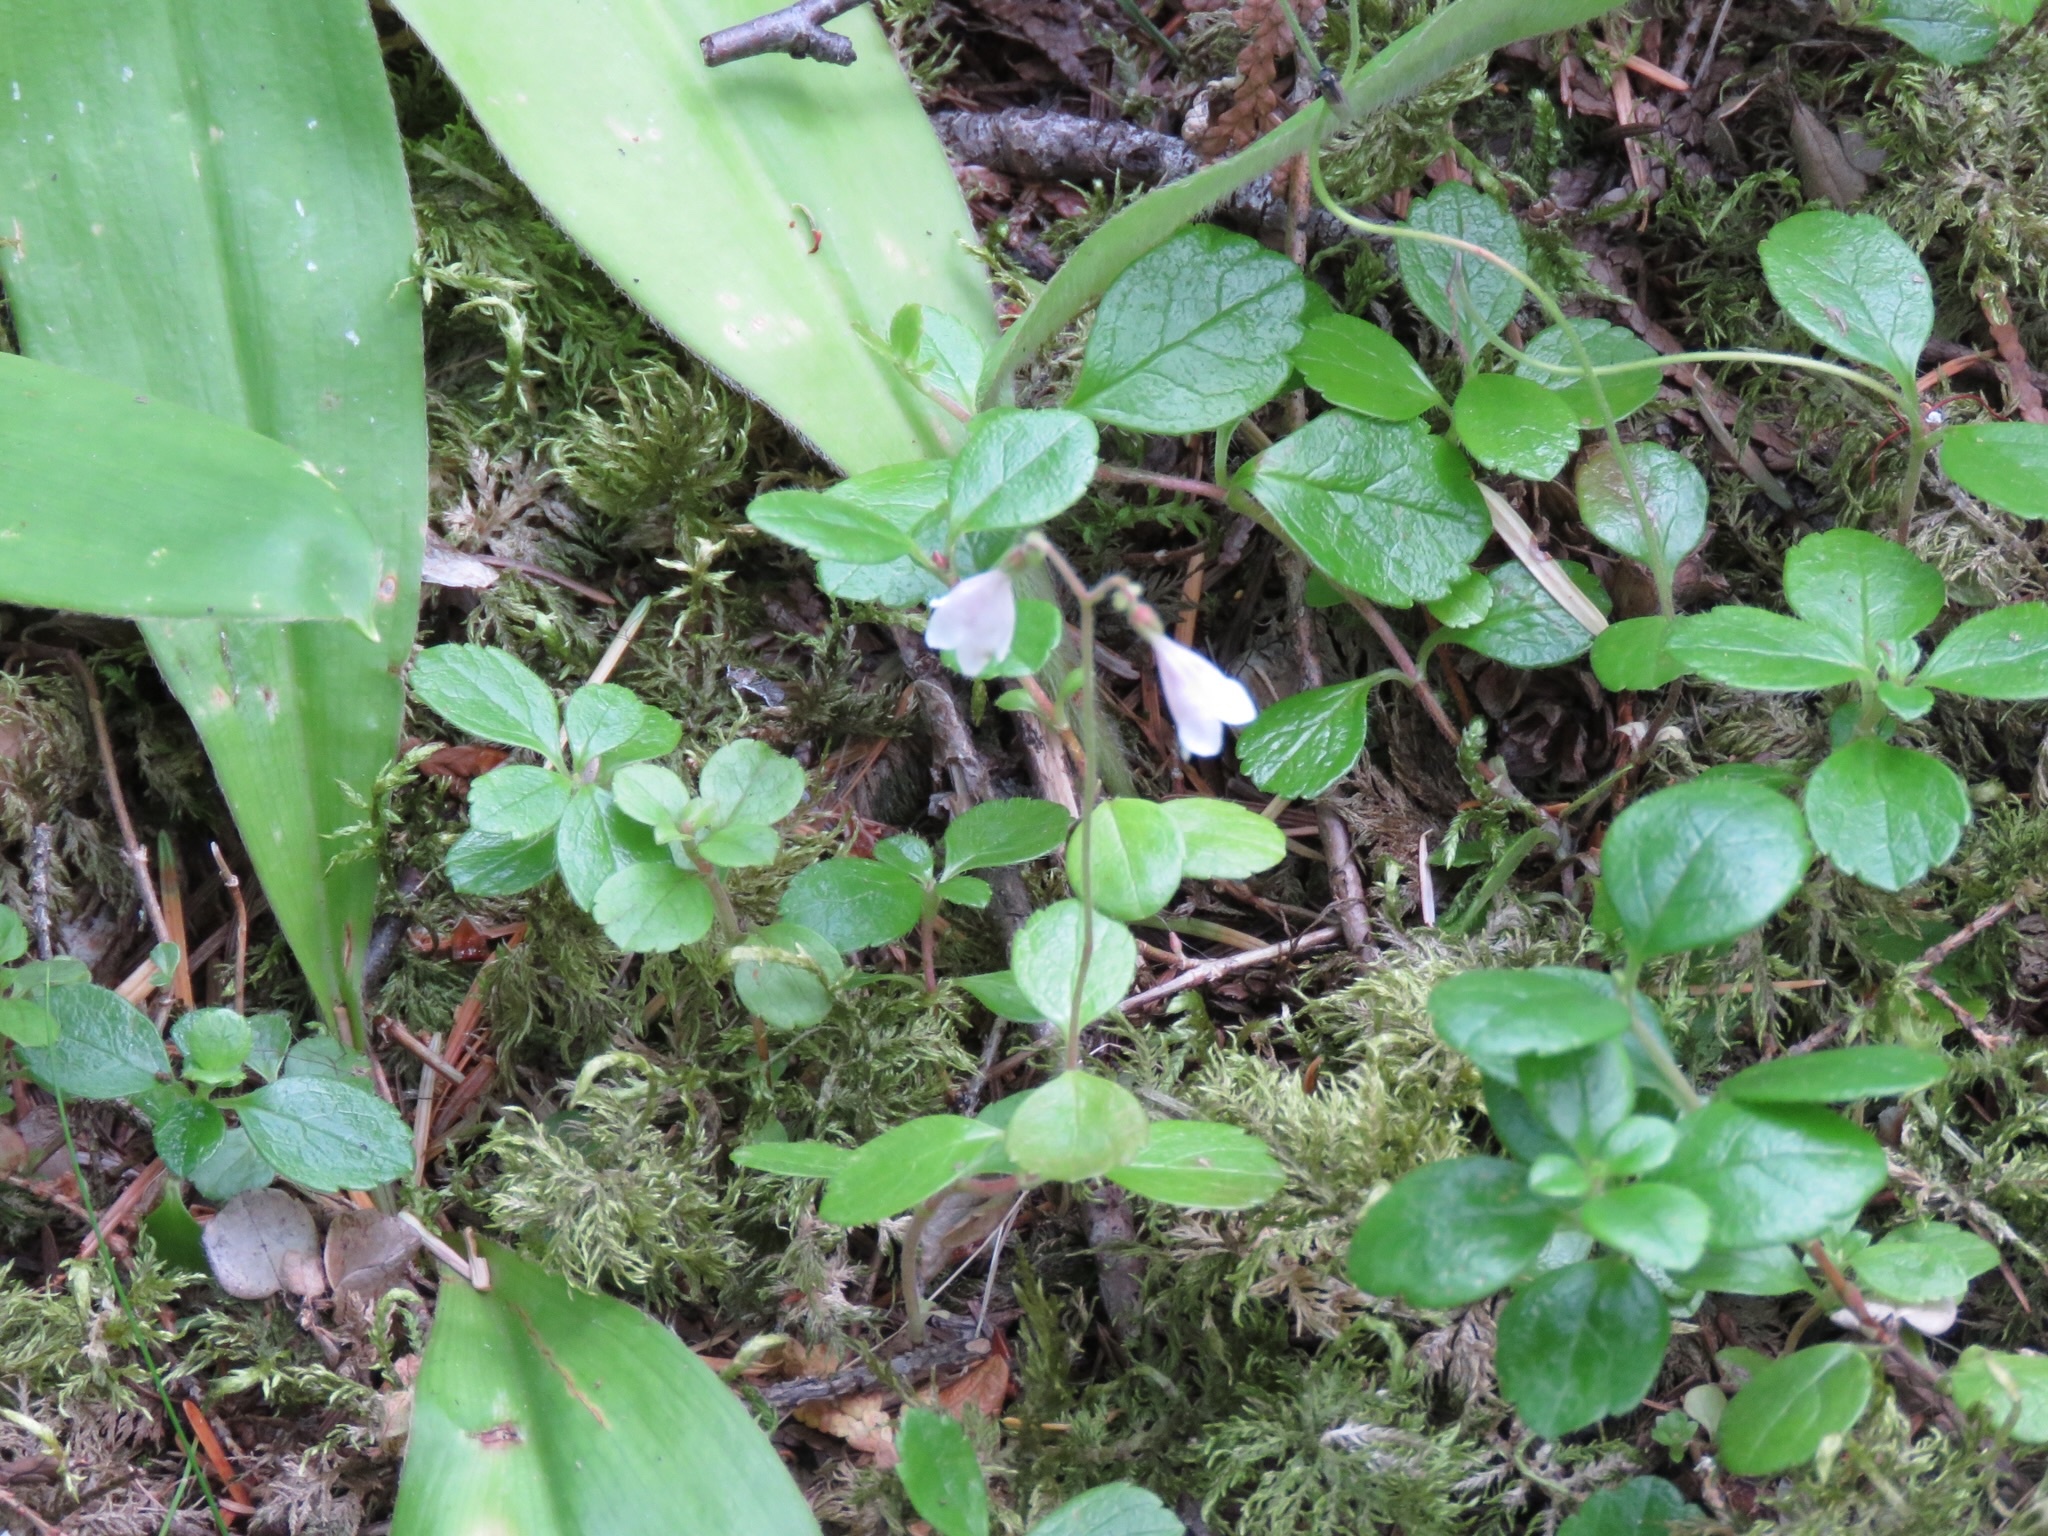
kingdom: Plantae
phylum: Tracheophyta
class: Magnoliopsida
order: Dipsacales
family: Caprifoliaceae
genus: Linnaea
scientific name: Linnaea borealis
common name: Twinflower
